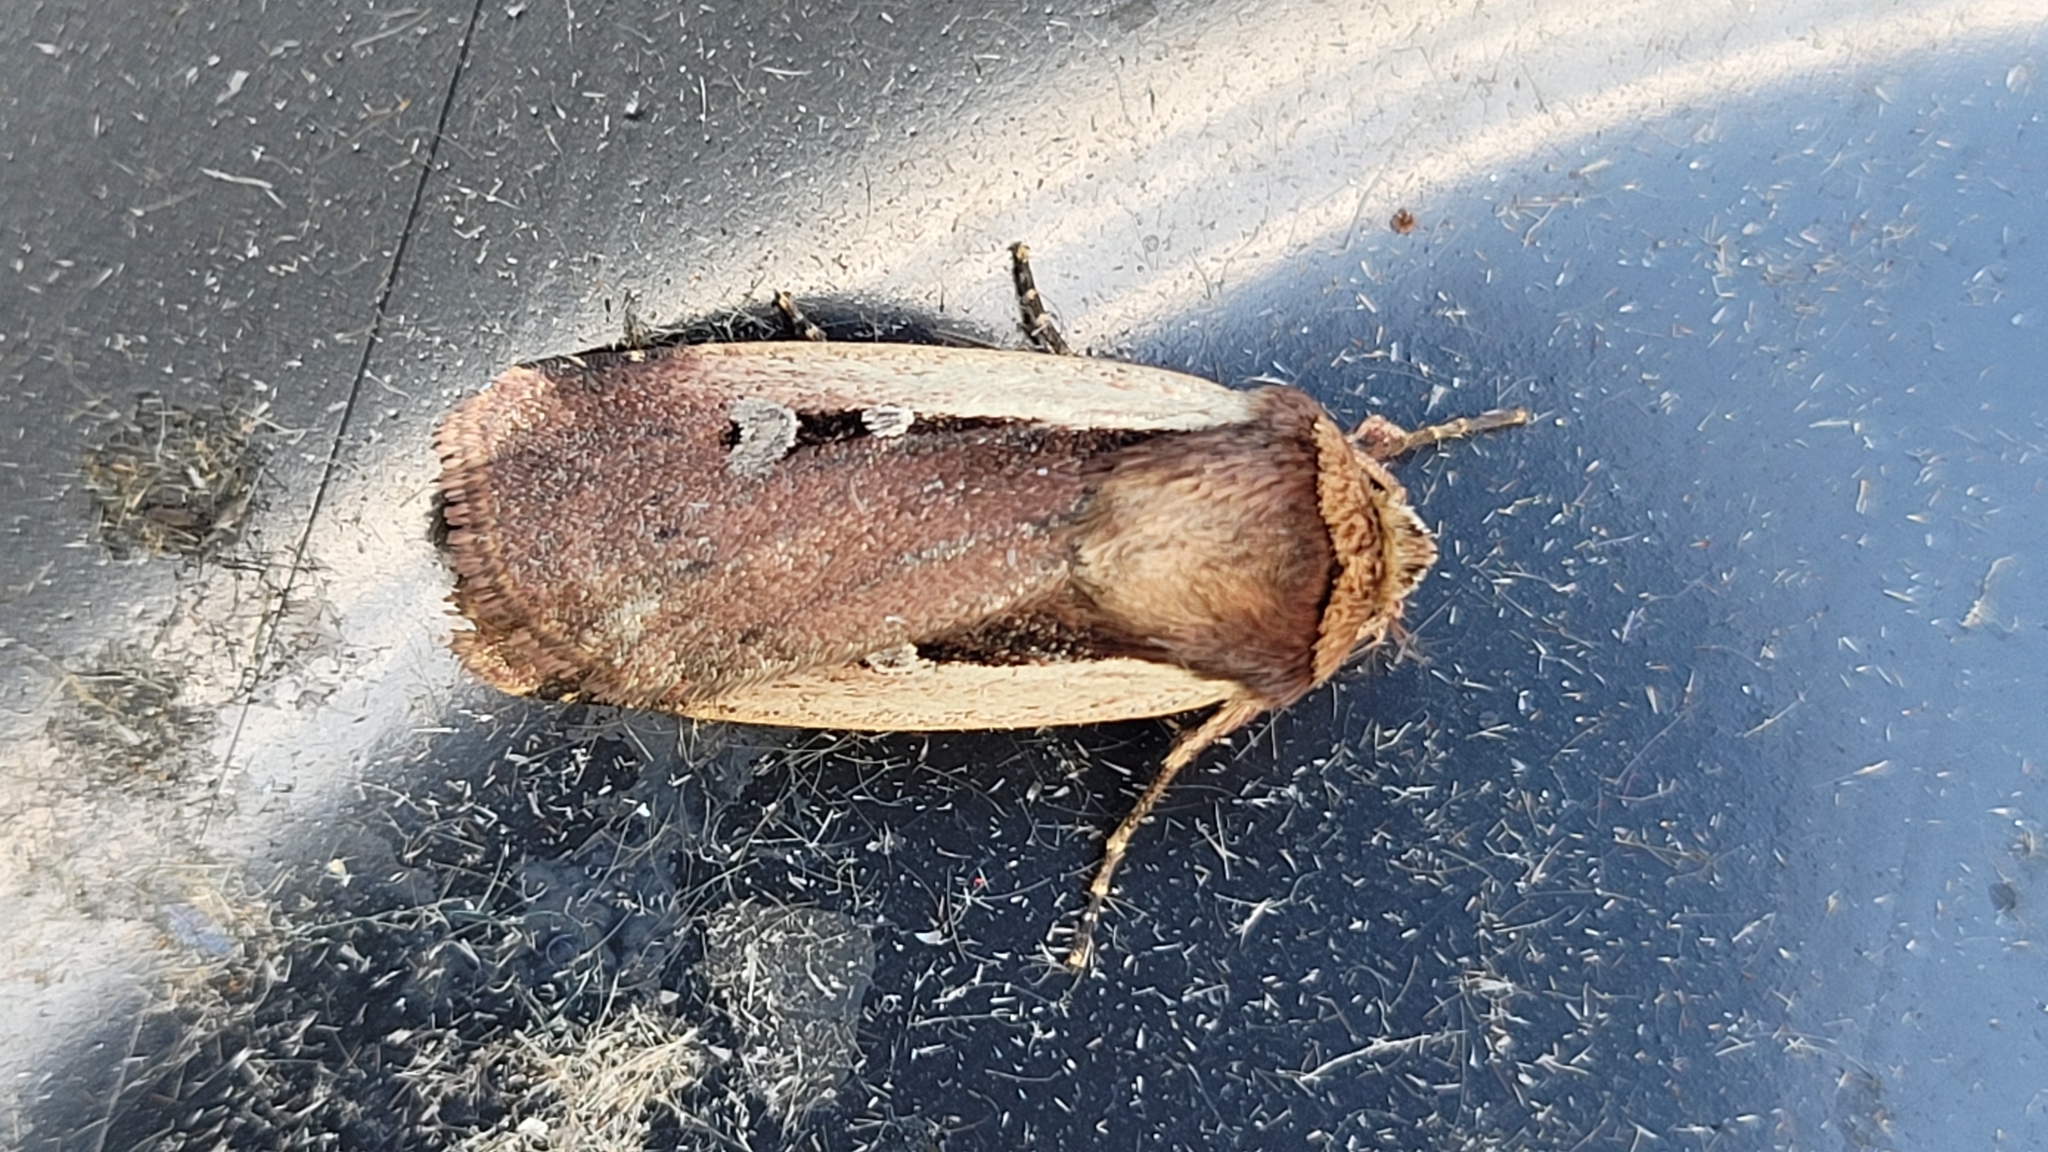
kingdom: Animalia
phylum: Arthropoda
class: Insecta
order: Lepidoptera
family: Noctuidae
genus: Ochropleura
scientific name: Ochropleura plecta
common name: Flame shoulder
